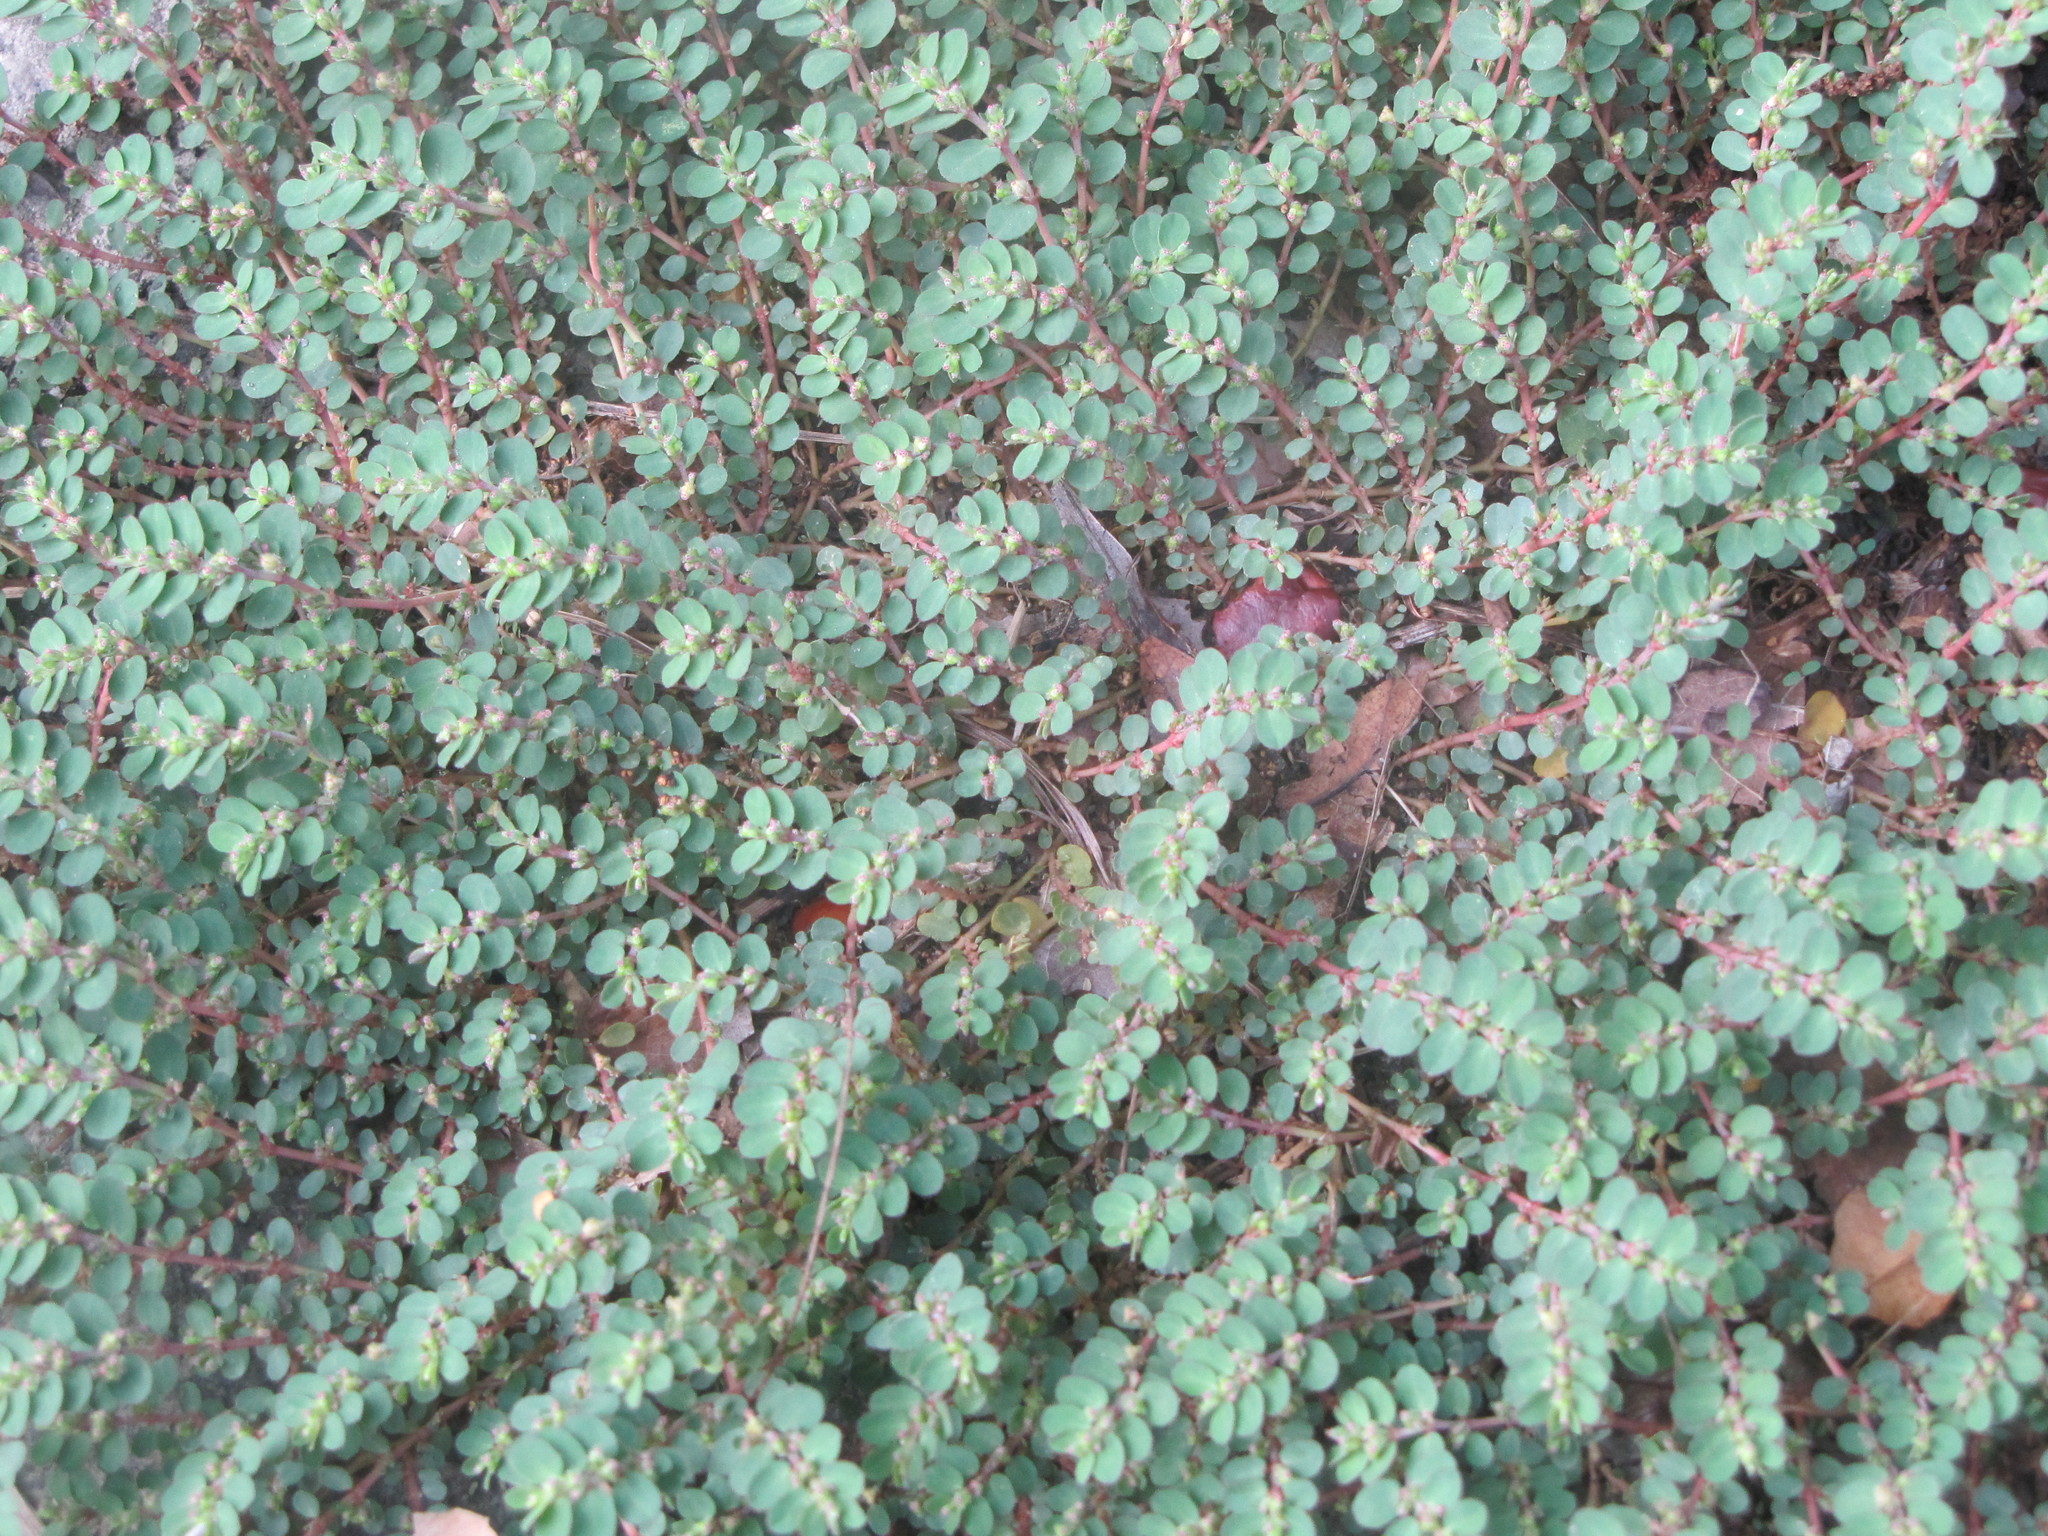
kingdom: Plantae
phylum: Tracheophyta
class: Magnoliopsida
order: Malpighiales
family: Euphorbiaceae
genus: Euphorbia
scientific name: Euphorbia prostrata
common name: Prostrate sandmat
